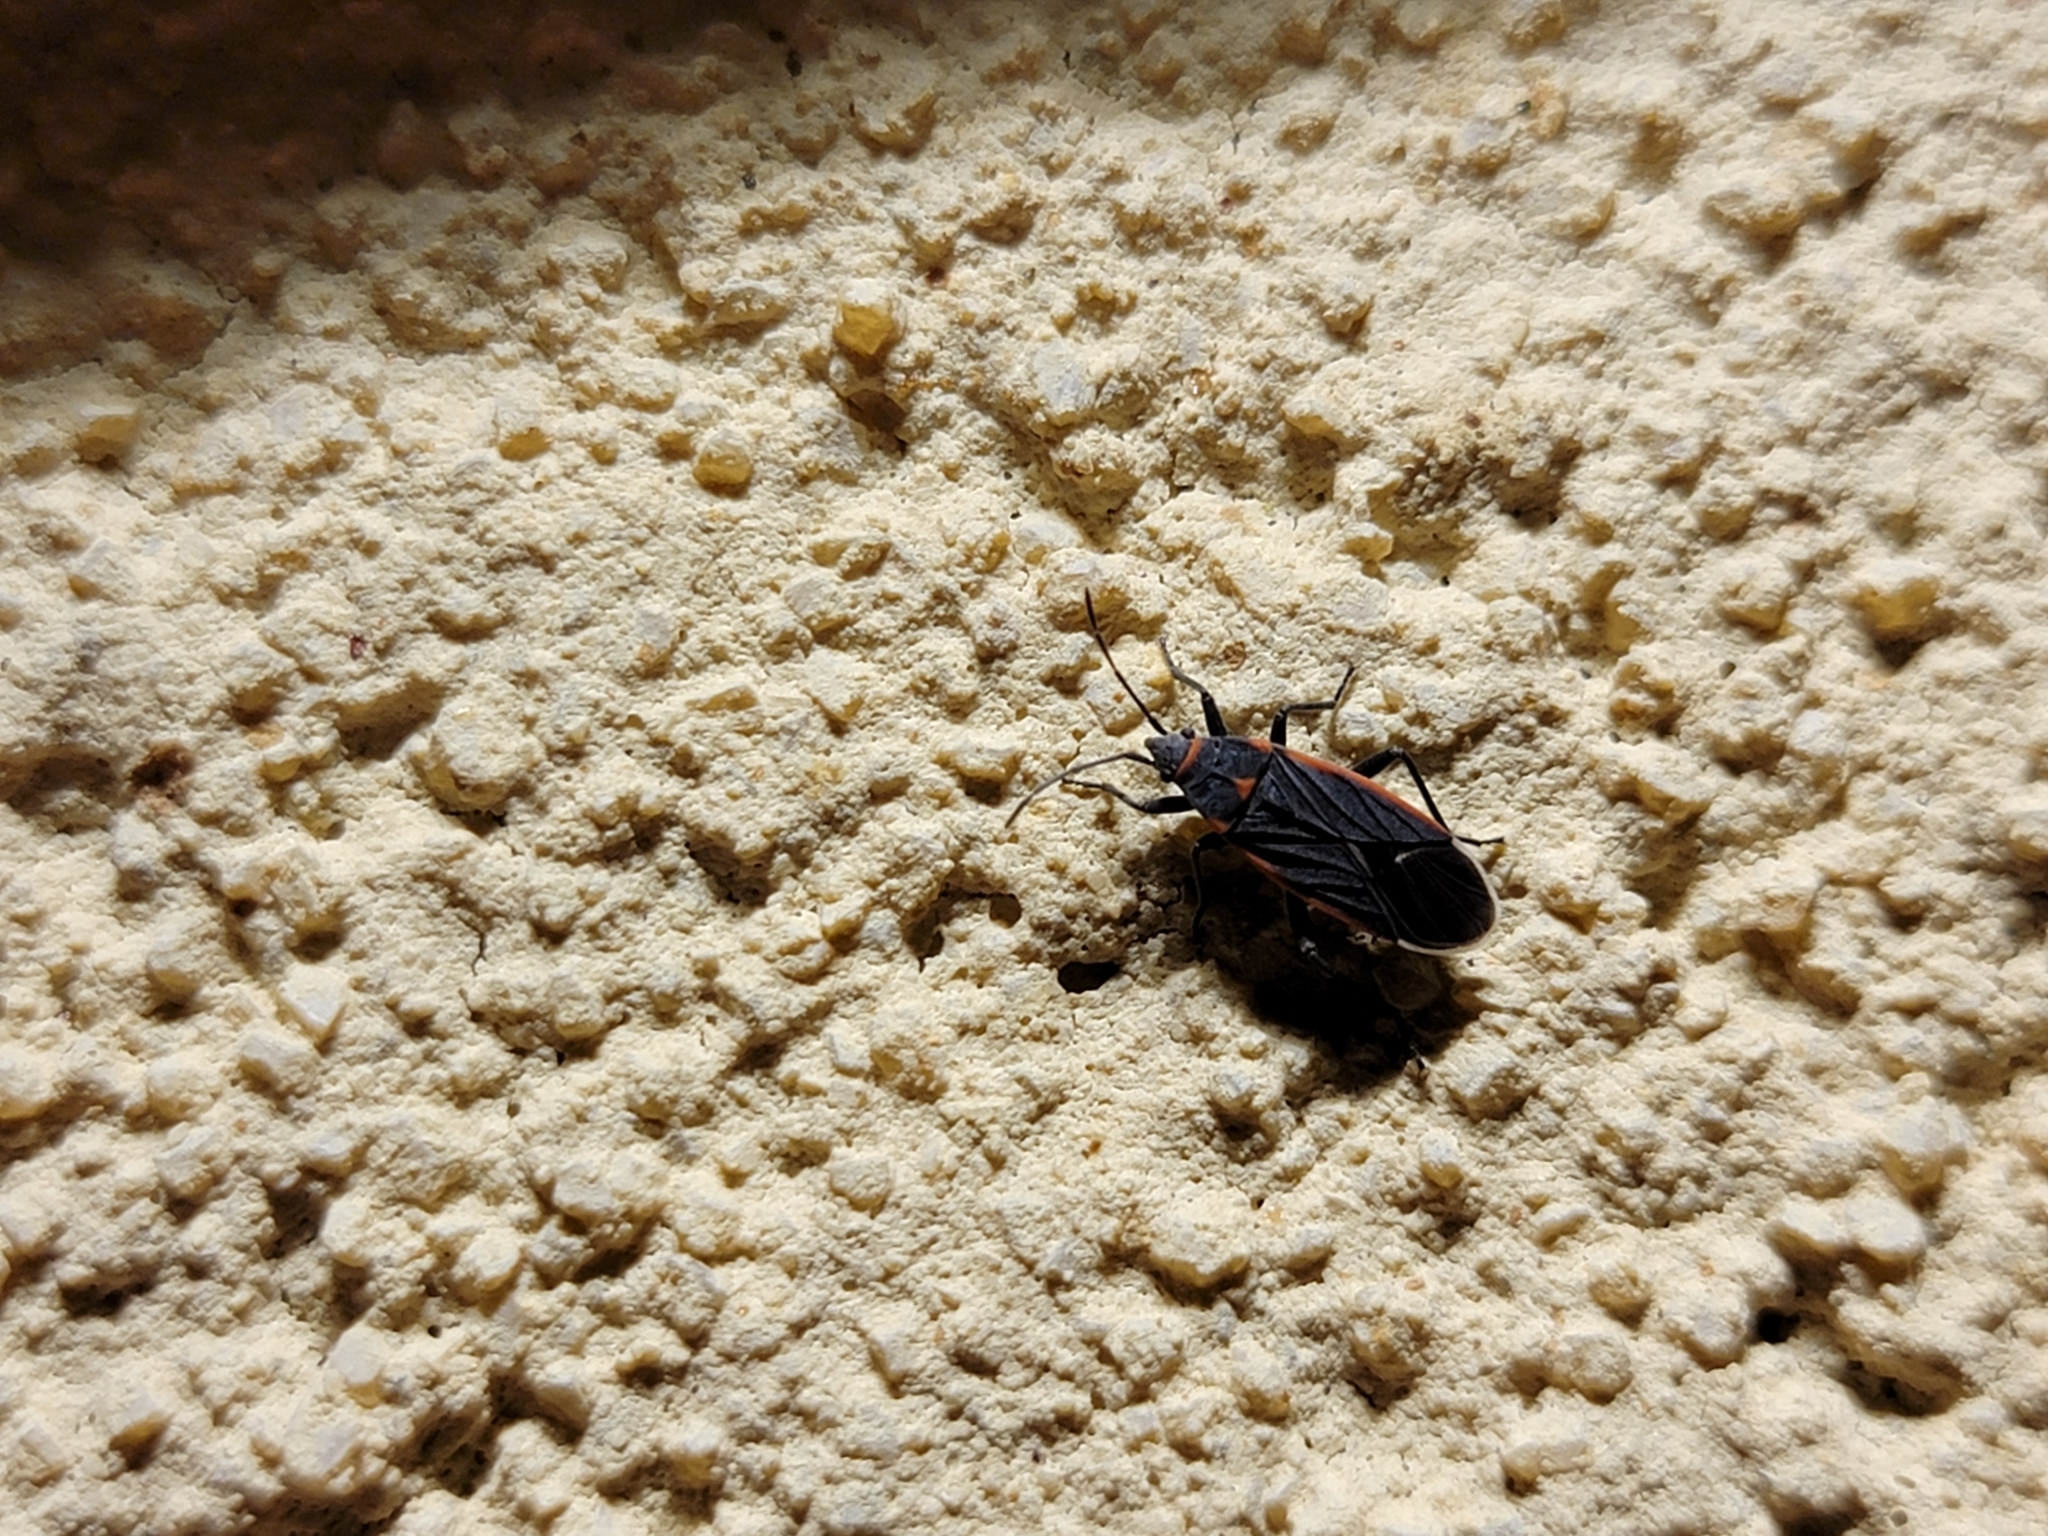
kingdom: Animalia
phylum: Arthropoda
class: Insecta
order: Hemiptera
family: Lygaeidae
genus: Melacoryphus
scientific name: Melacoryphus lateralis
